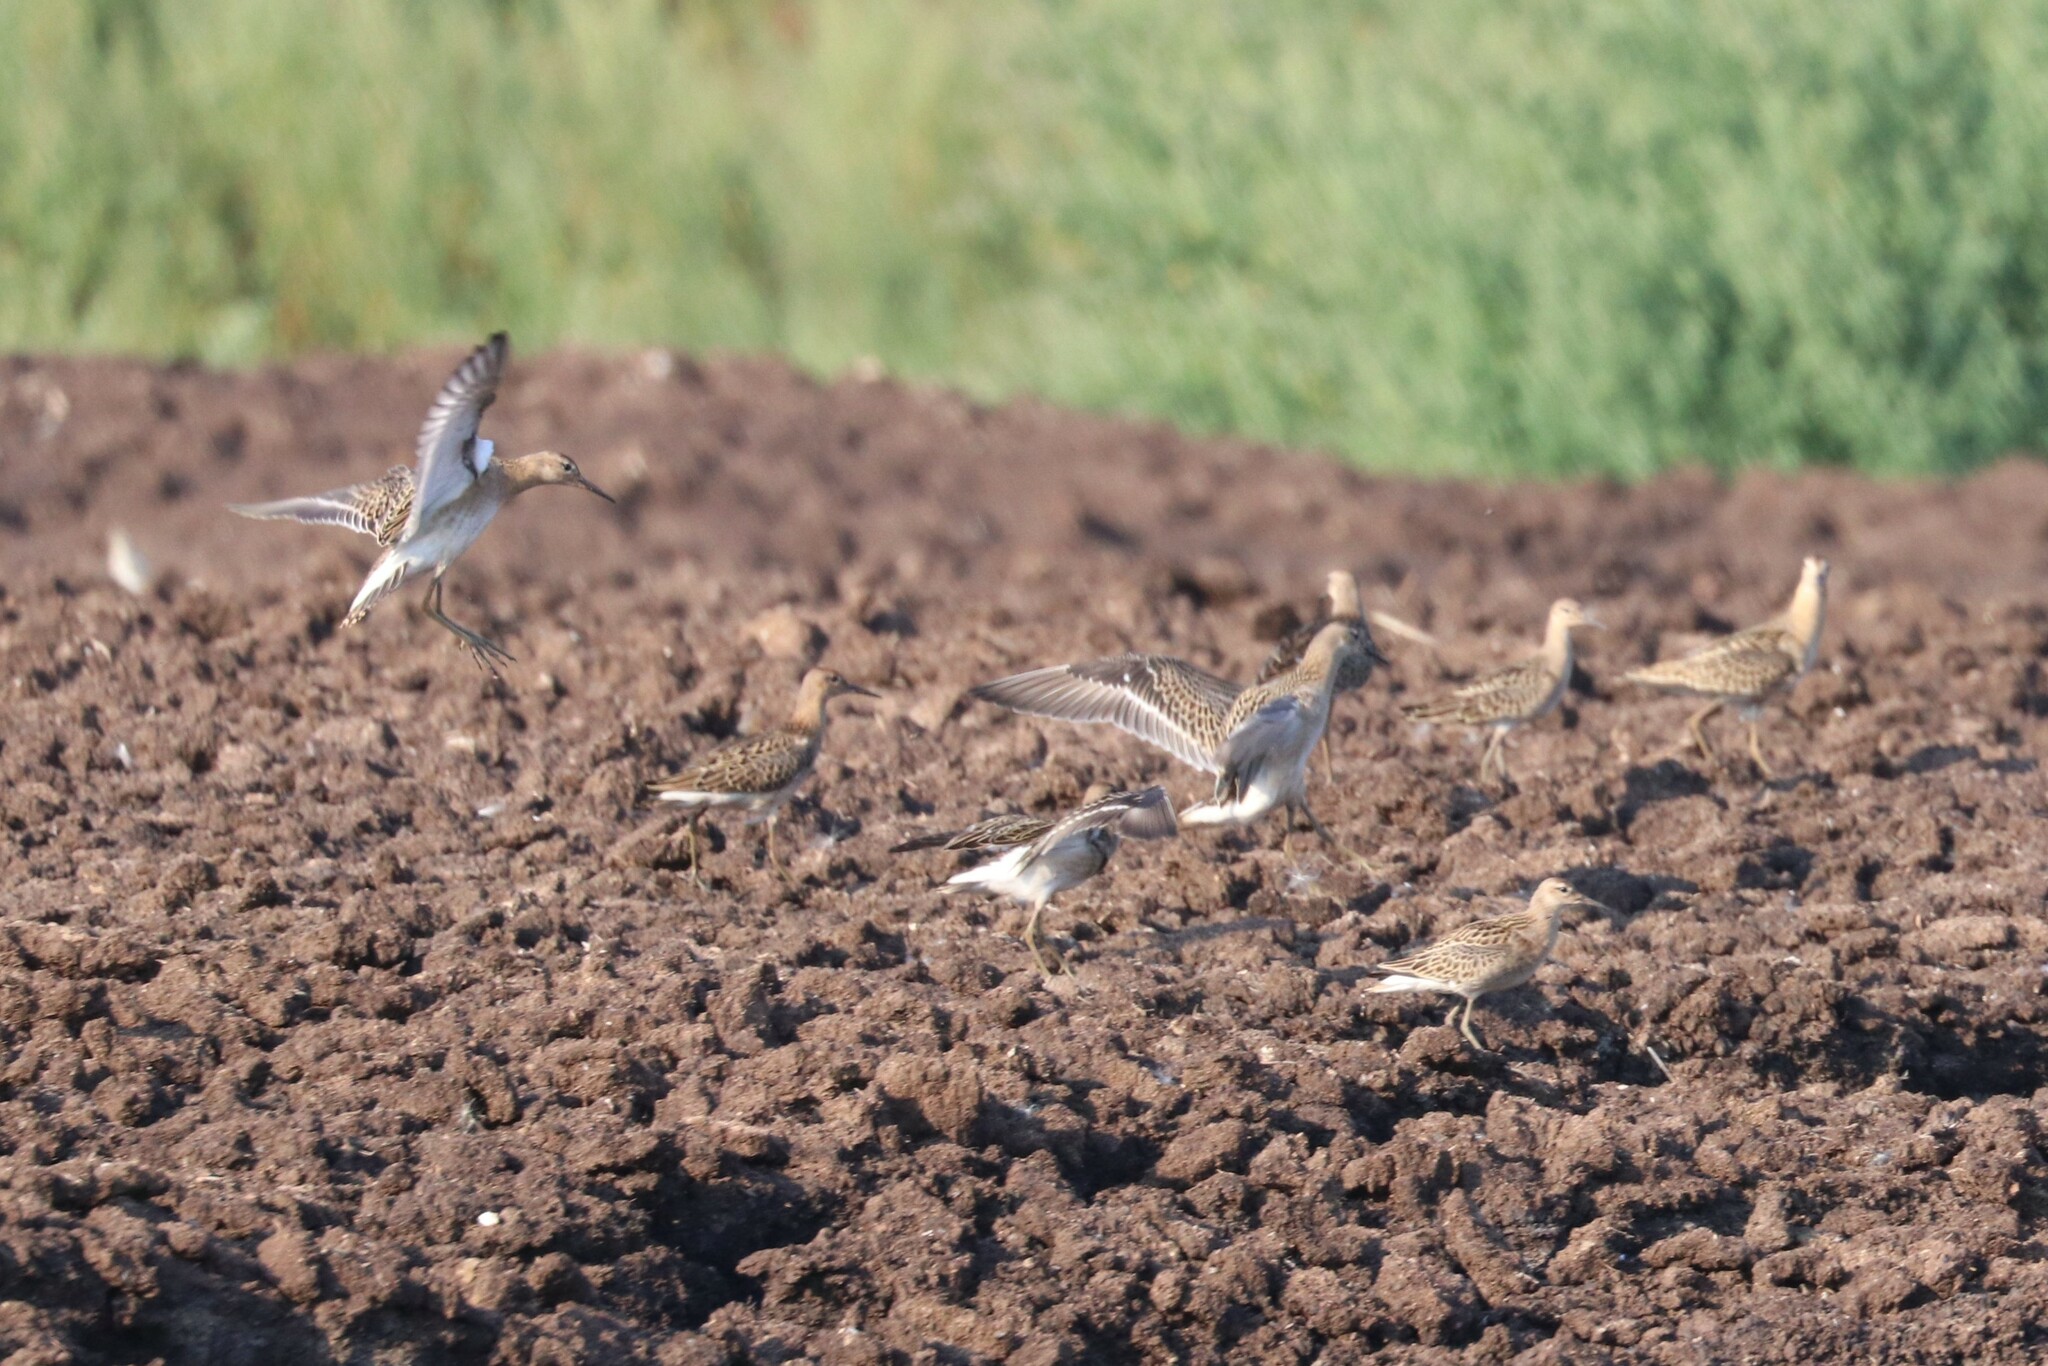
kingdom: Animalia
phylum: Chordata
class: Aves
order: Charadriiformes
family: Scolopacidae
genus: Calidris
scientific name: Calidris pugnax
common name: Ruff
